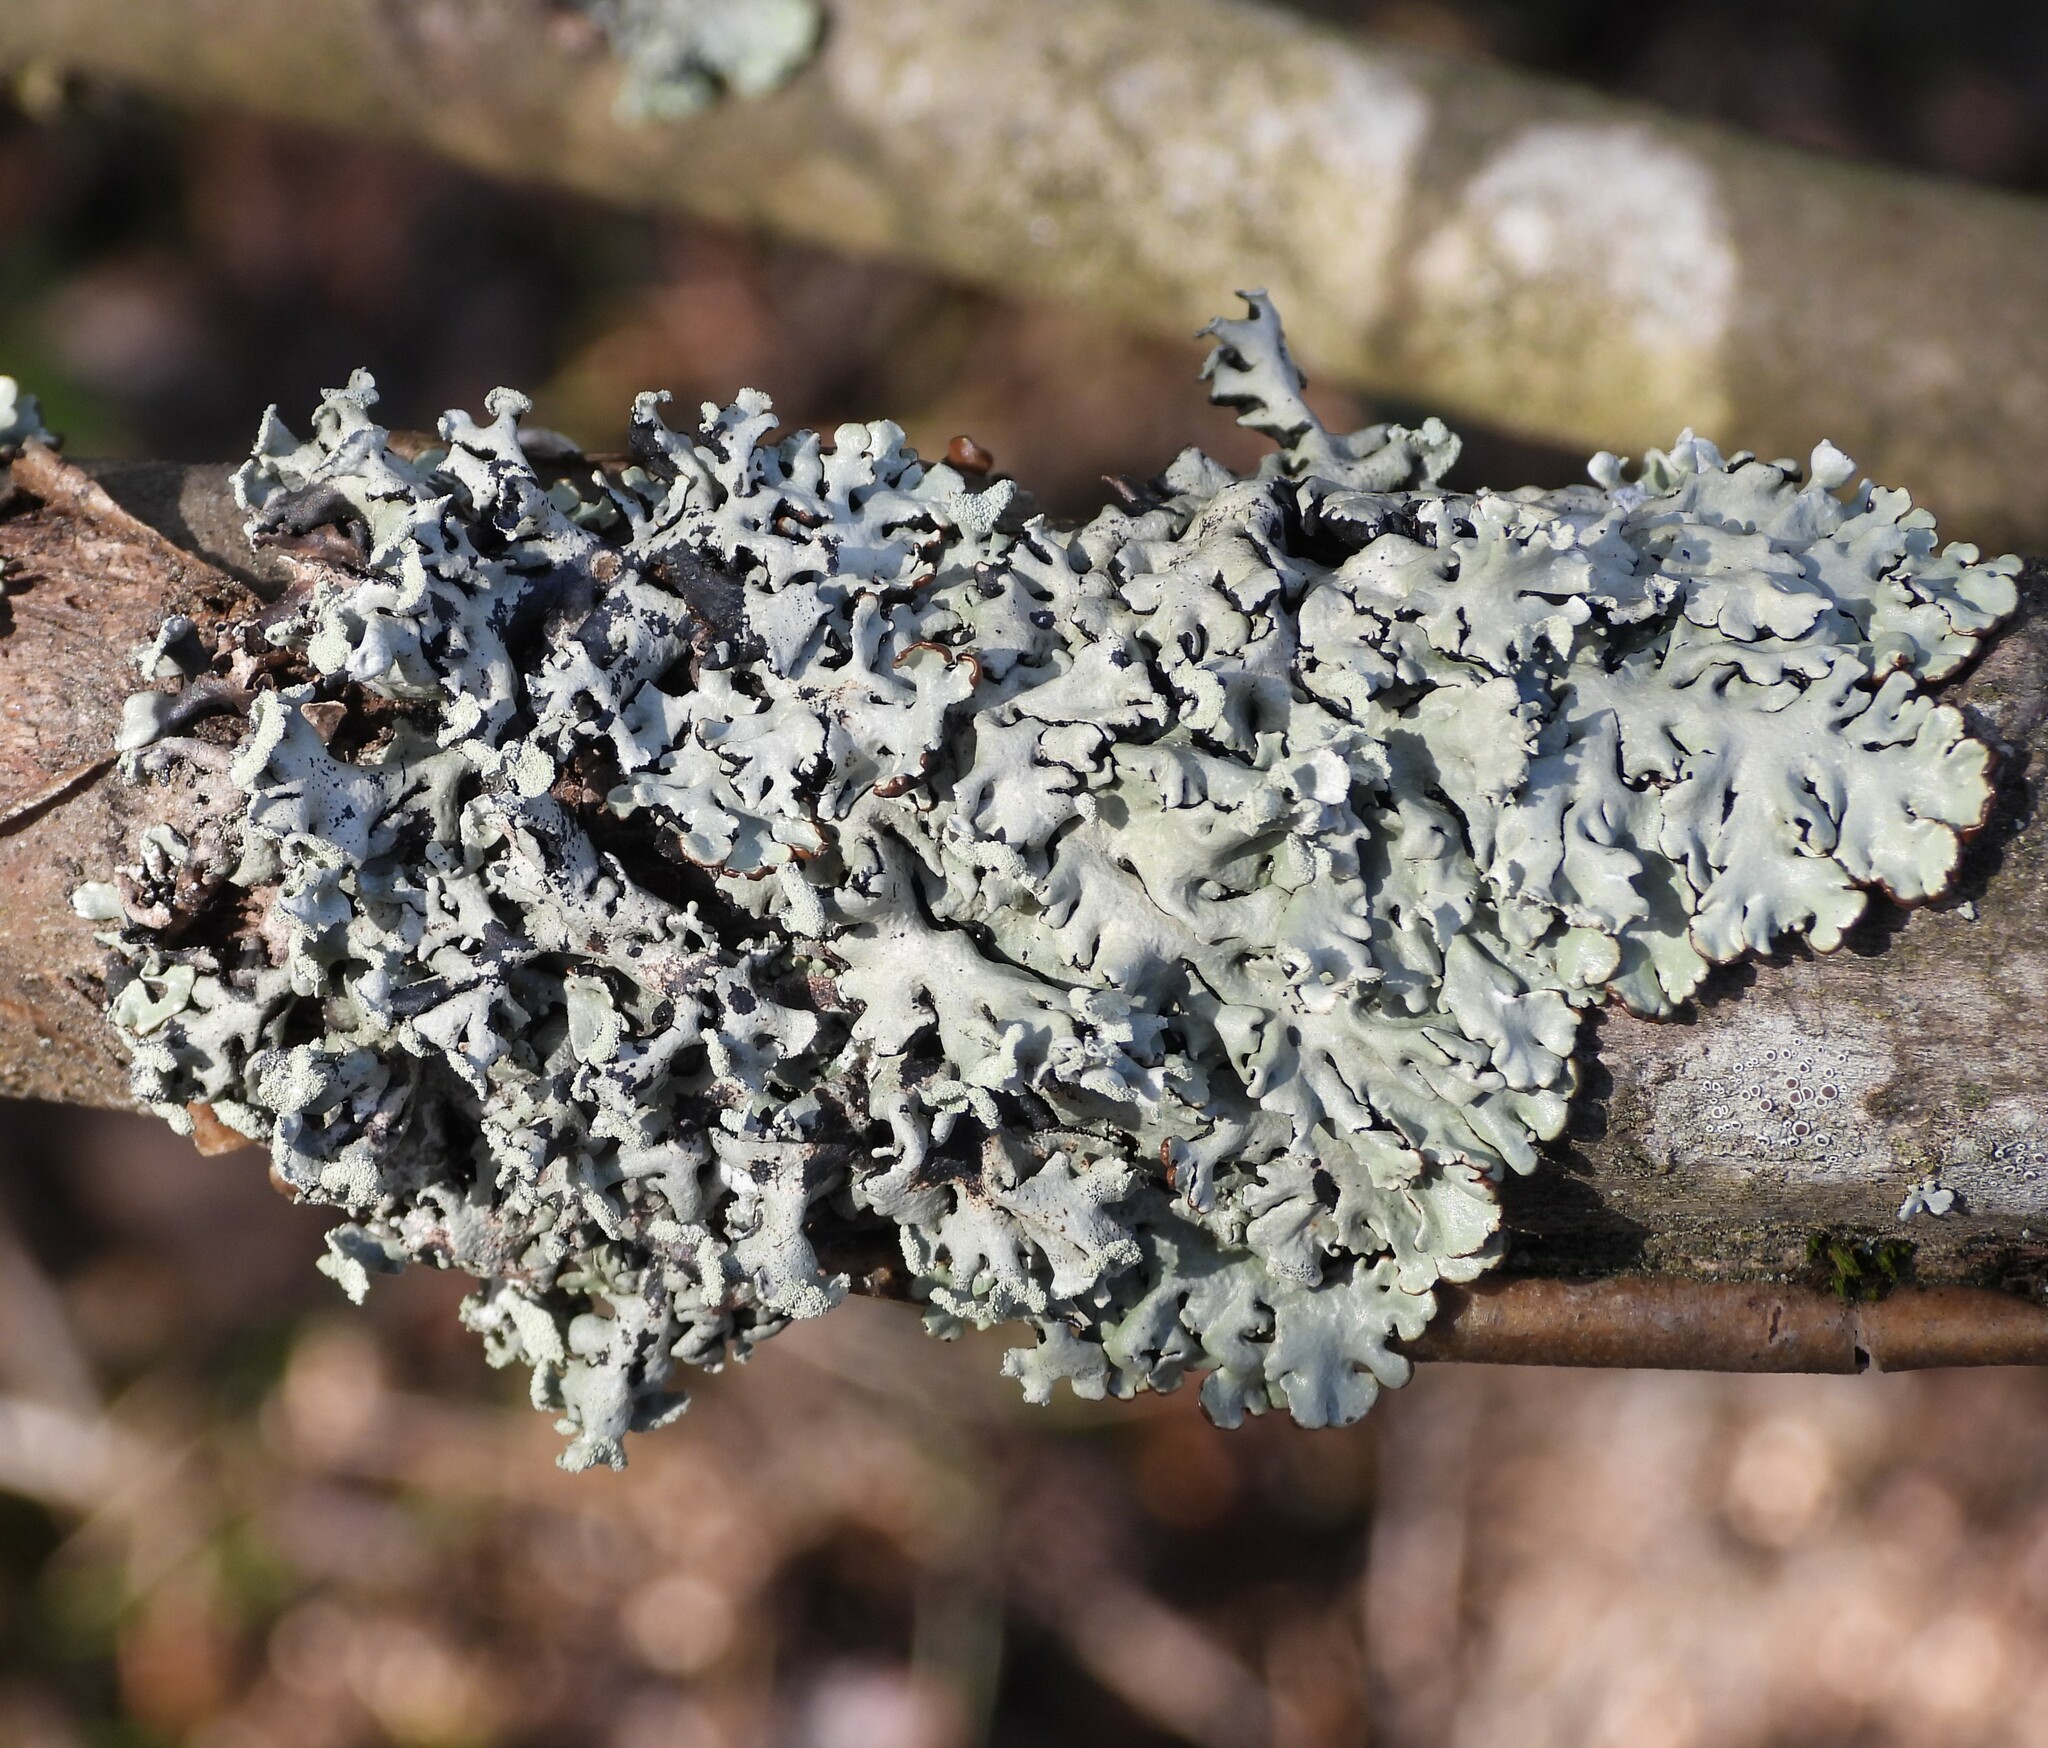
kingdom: Fungi
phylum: Ascomycota
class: Lecanoromycetes
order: Lecanorales
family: Parmeliaceae
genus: Hypogymnia
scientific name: Hypogymnia physodes
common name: Dark crottle
